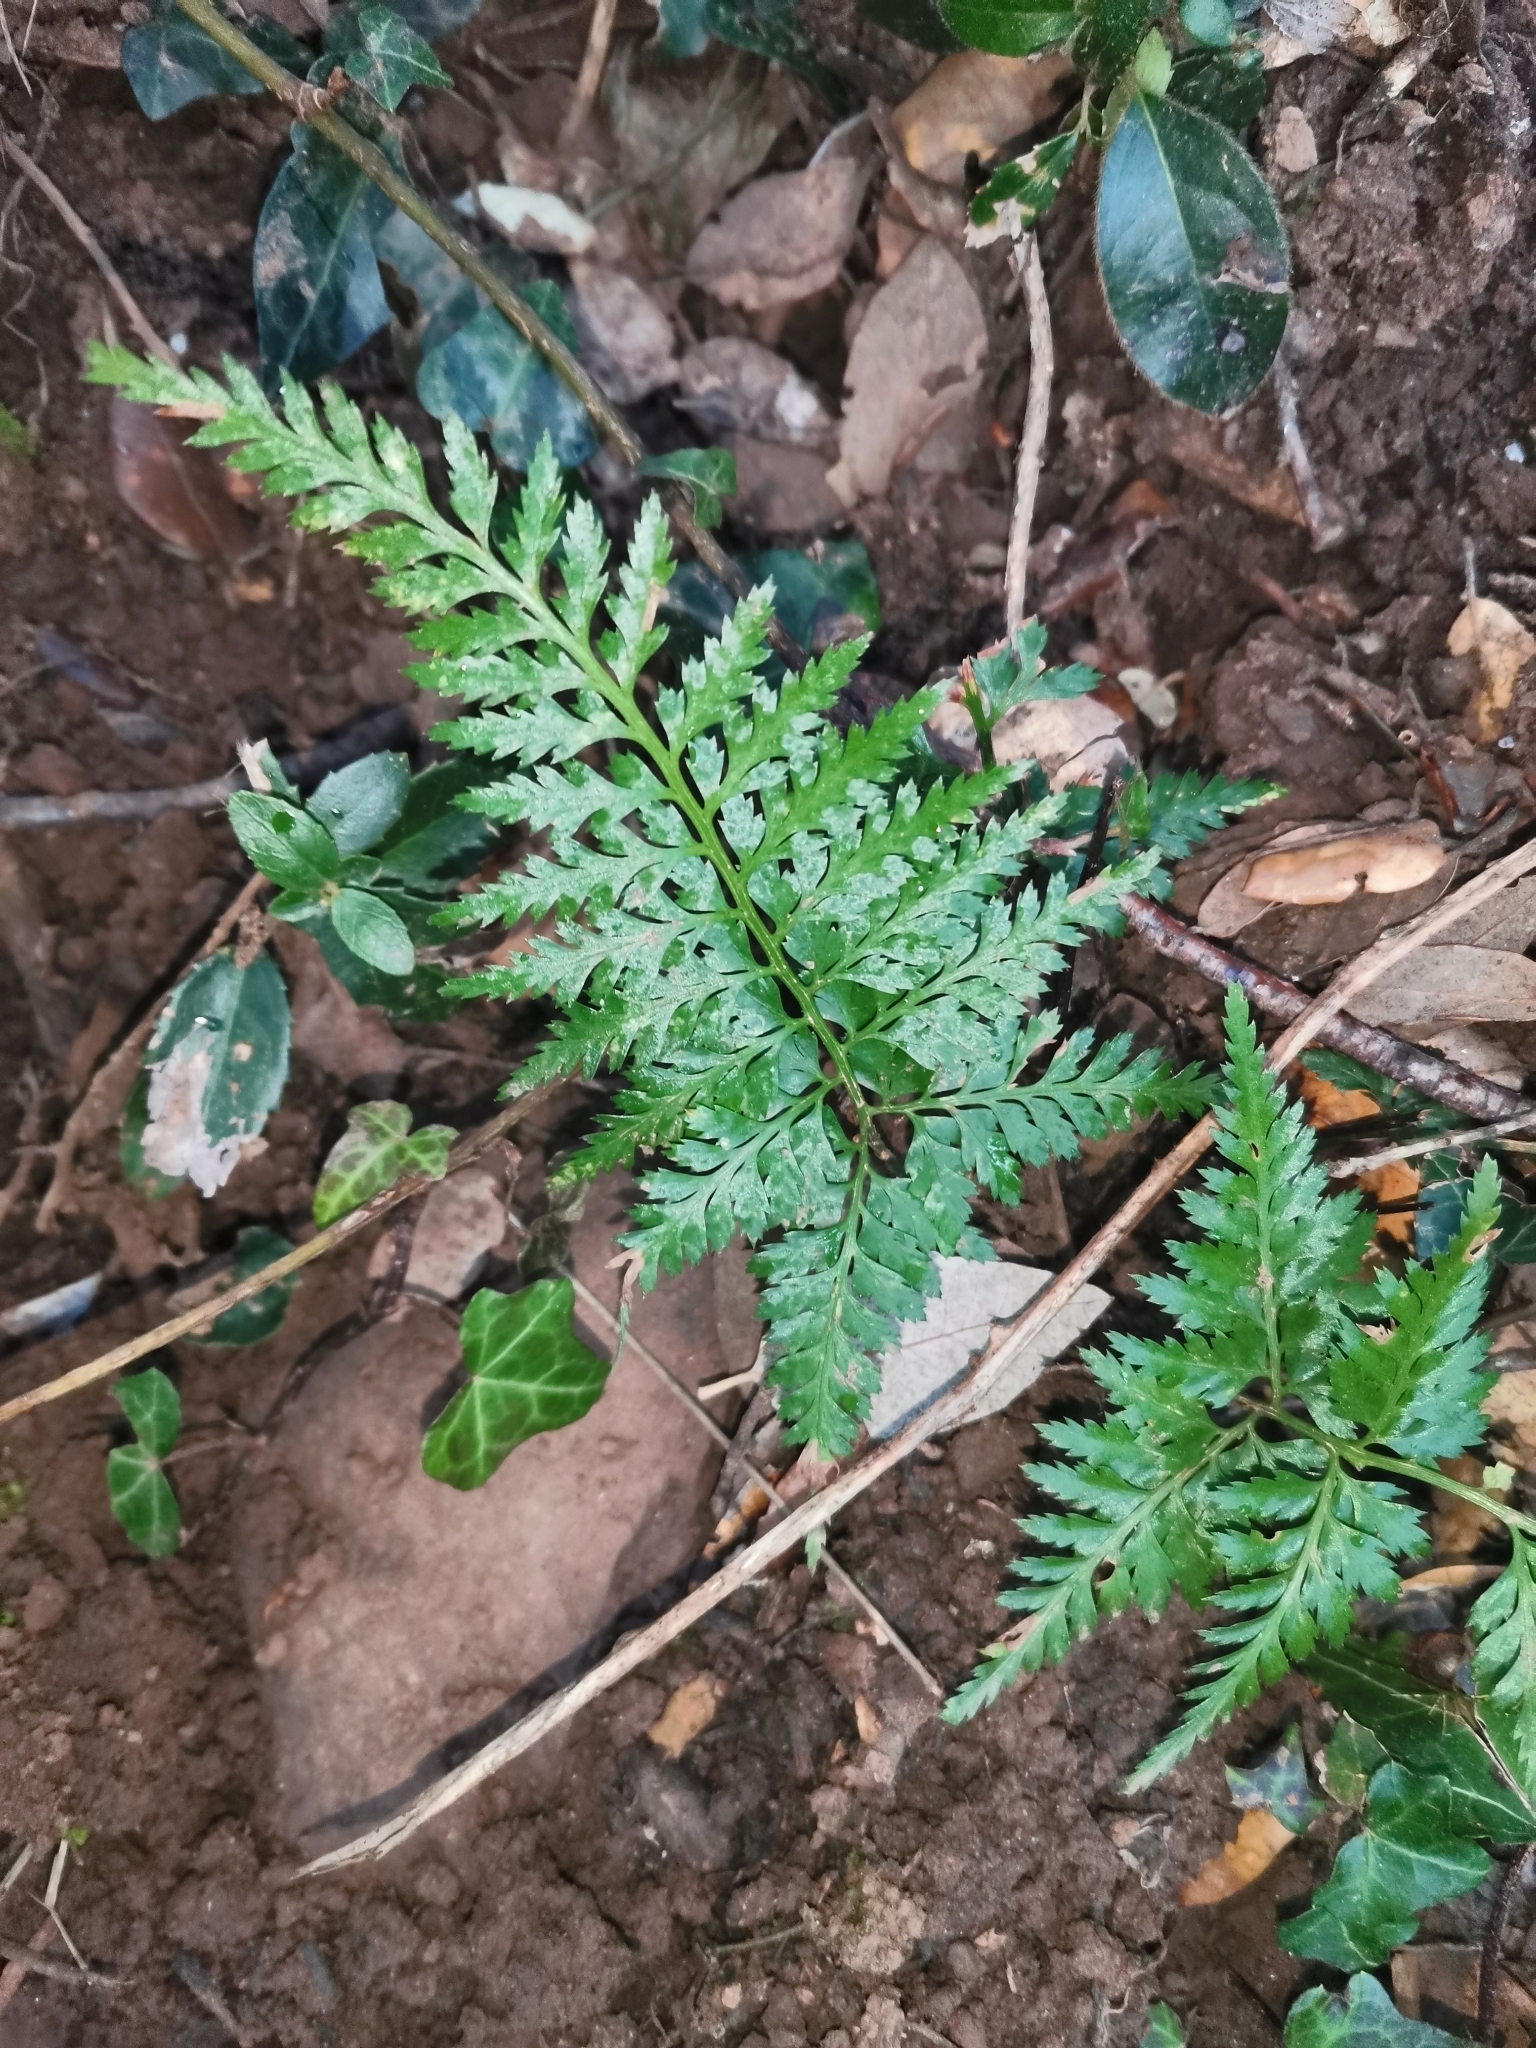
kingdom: Plantae
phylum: Tracheophyta
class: Polypodiopsida
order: Polypodiales
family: Aspleniaceae
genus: Asplenium
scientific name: Asplenium onopteris
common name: Irish spleenwort
